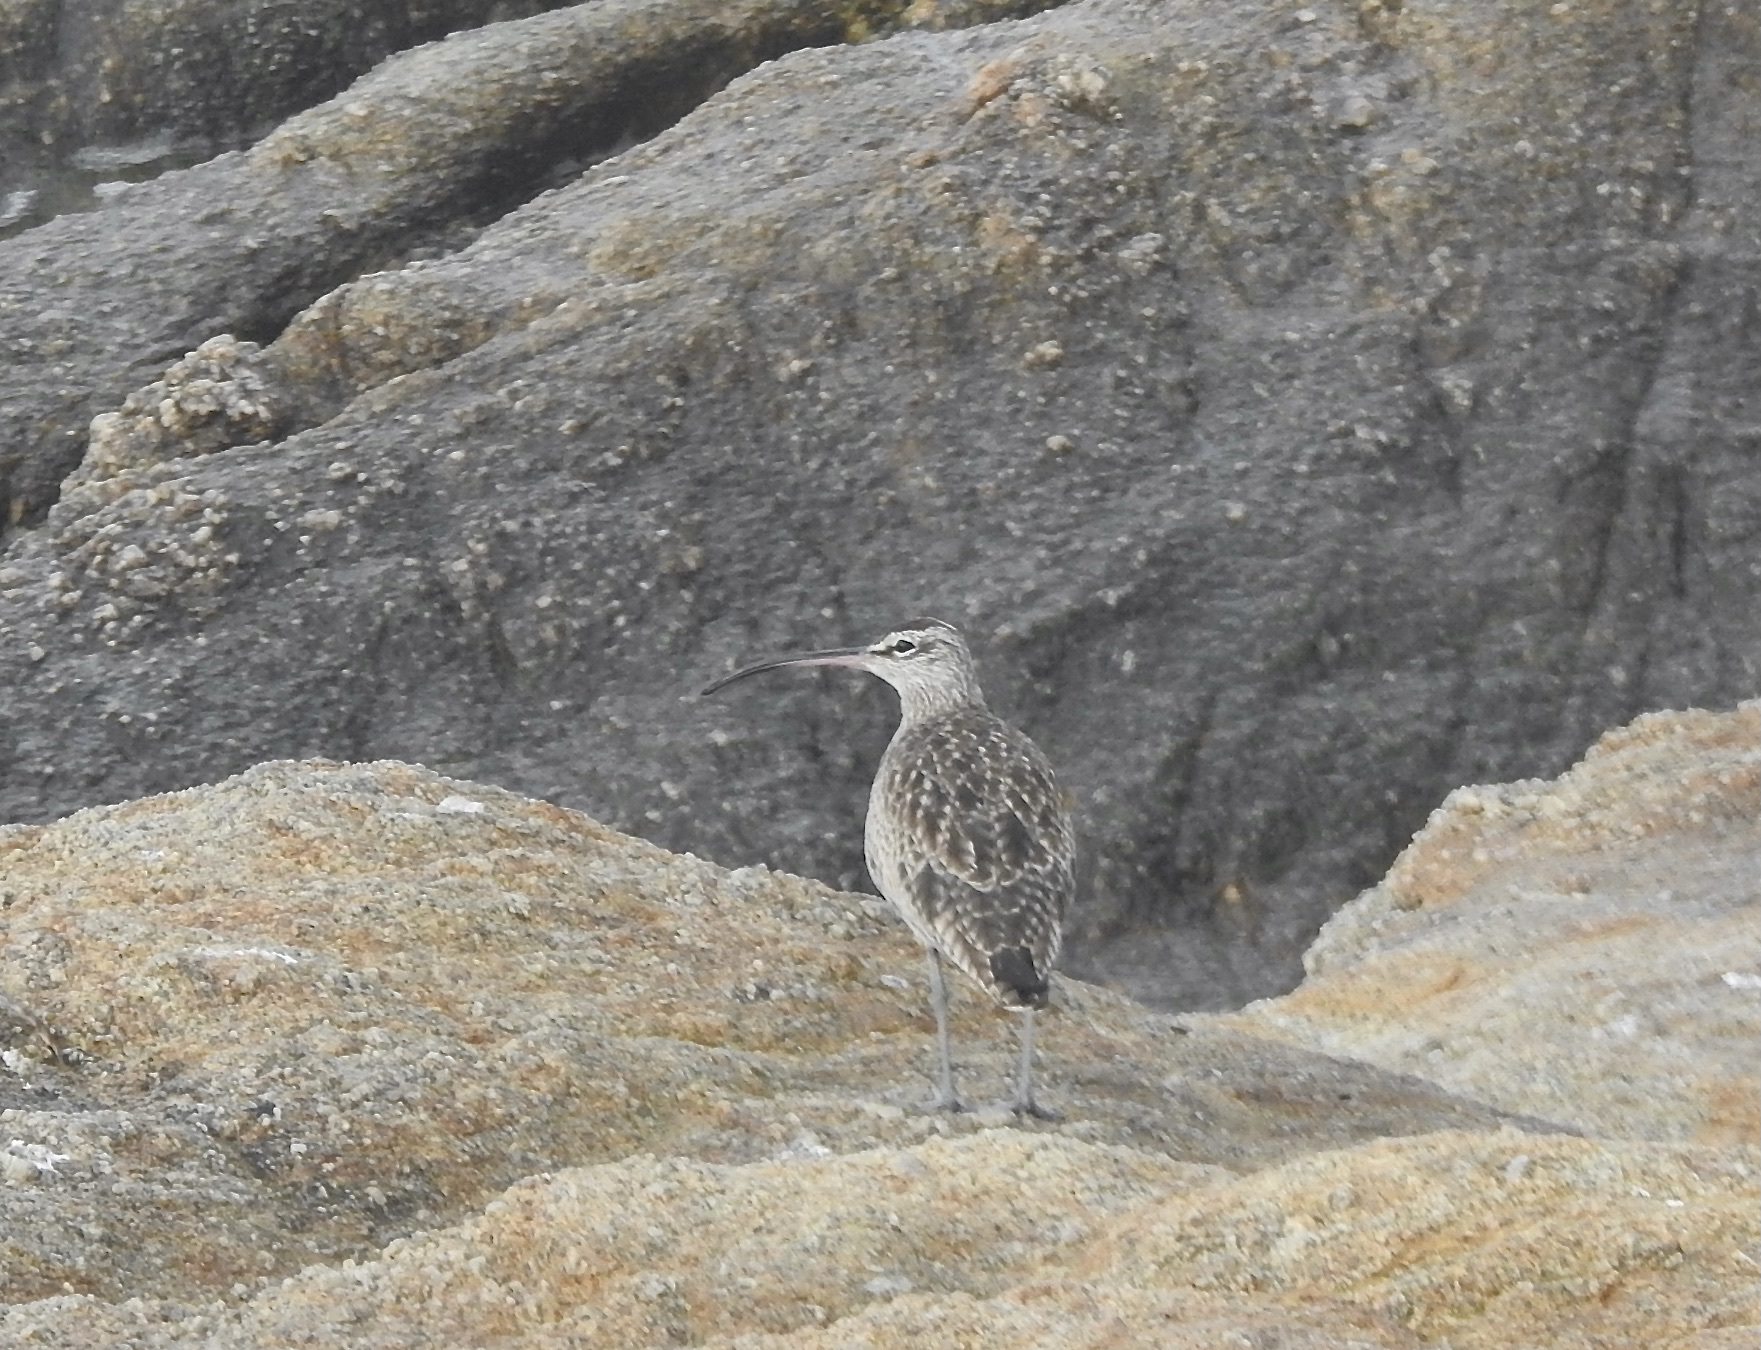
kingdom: Animalia
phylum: Chordata
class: Aves
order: Charadriiformes
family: Scolopacidae
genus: Numenius
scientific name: Numenius phaeopus
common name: Whimbrel
